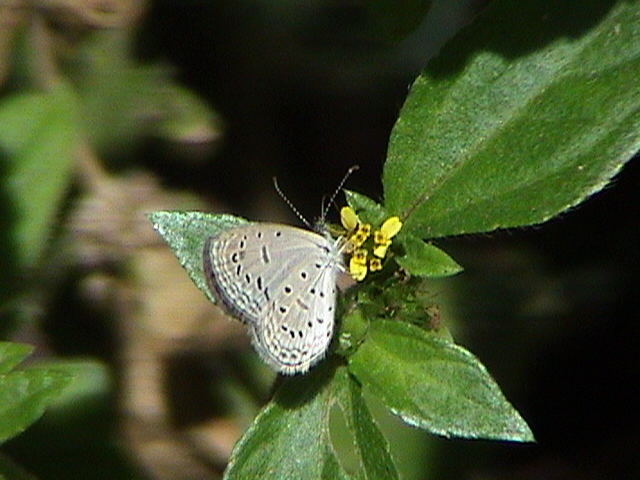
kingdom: Animalia
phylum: Arthropoda
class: Insecta
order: Lepidoptera
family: Lycaenidae
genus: Zizula
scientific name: Zizula hylax
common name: Gaika blue
